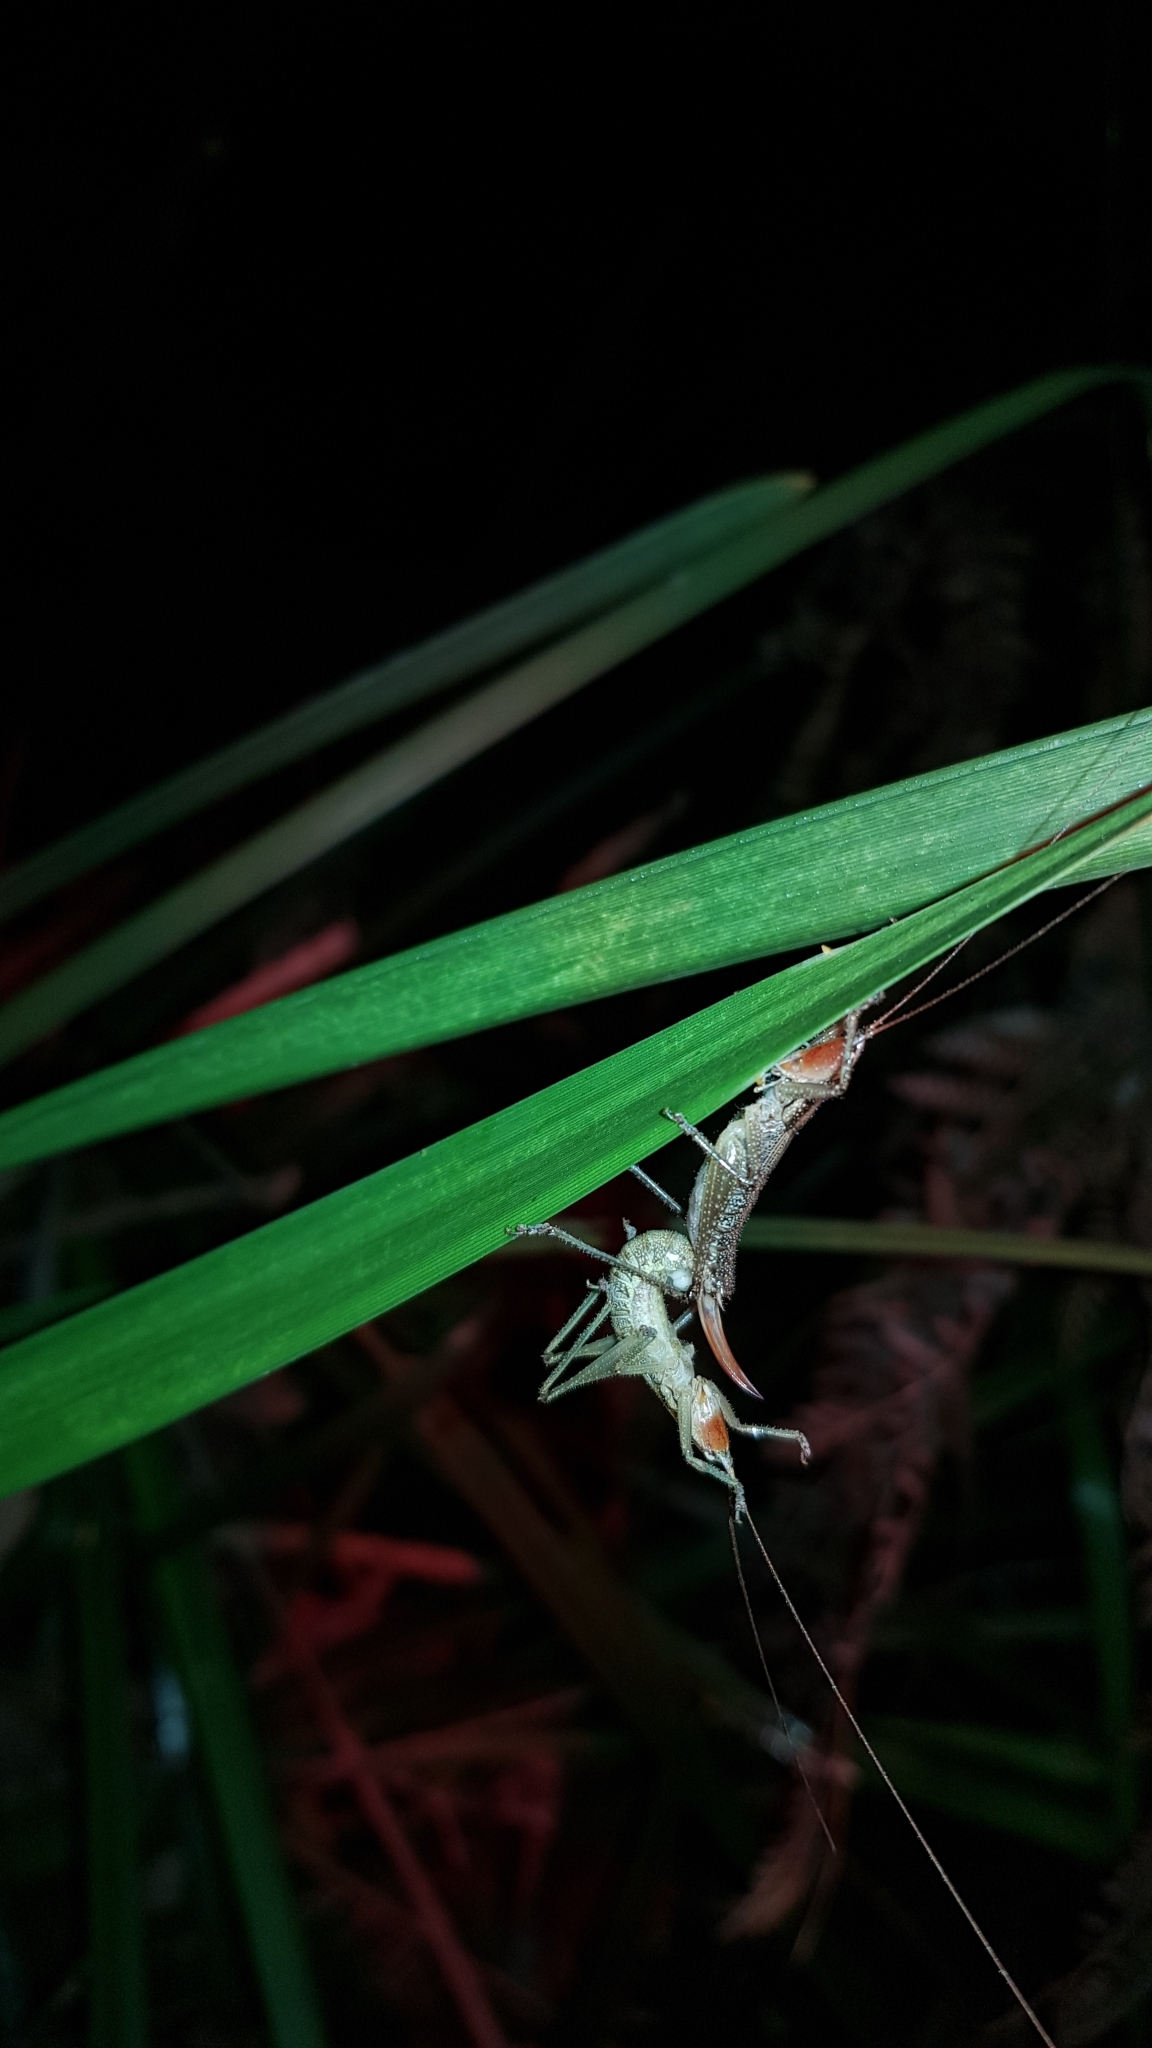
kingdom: Animalia
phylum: Arthropoda
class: Insecta
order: Orthoptera
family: Tettigoniidae
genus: Coptaspis
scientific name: Coptaspis brevipennis
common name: Sidney woodland katydid
